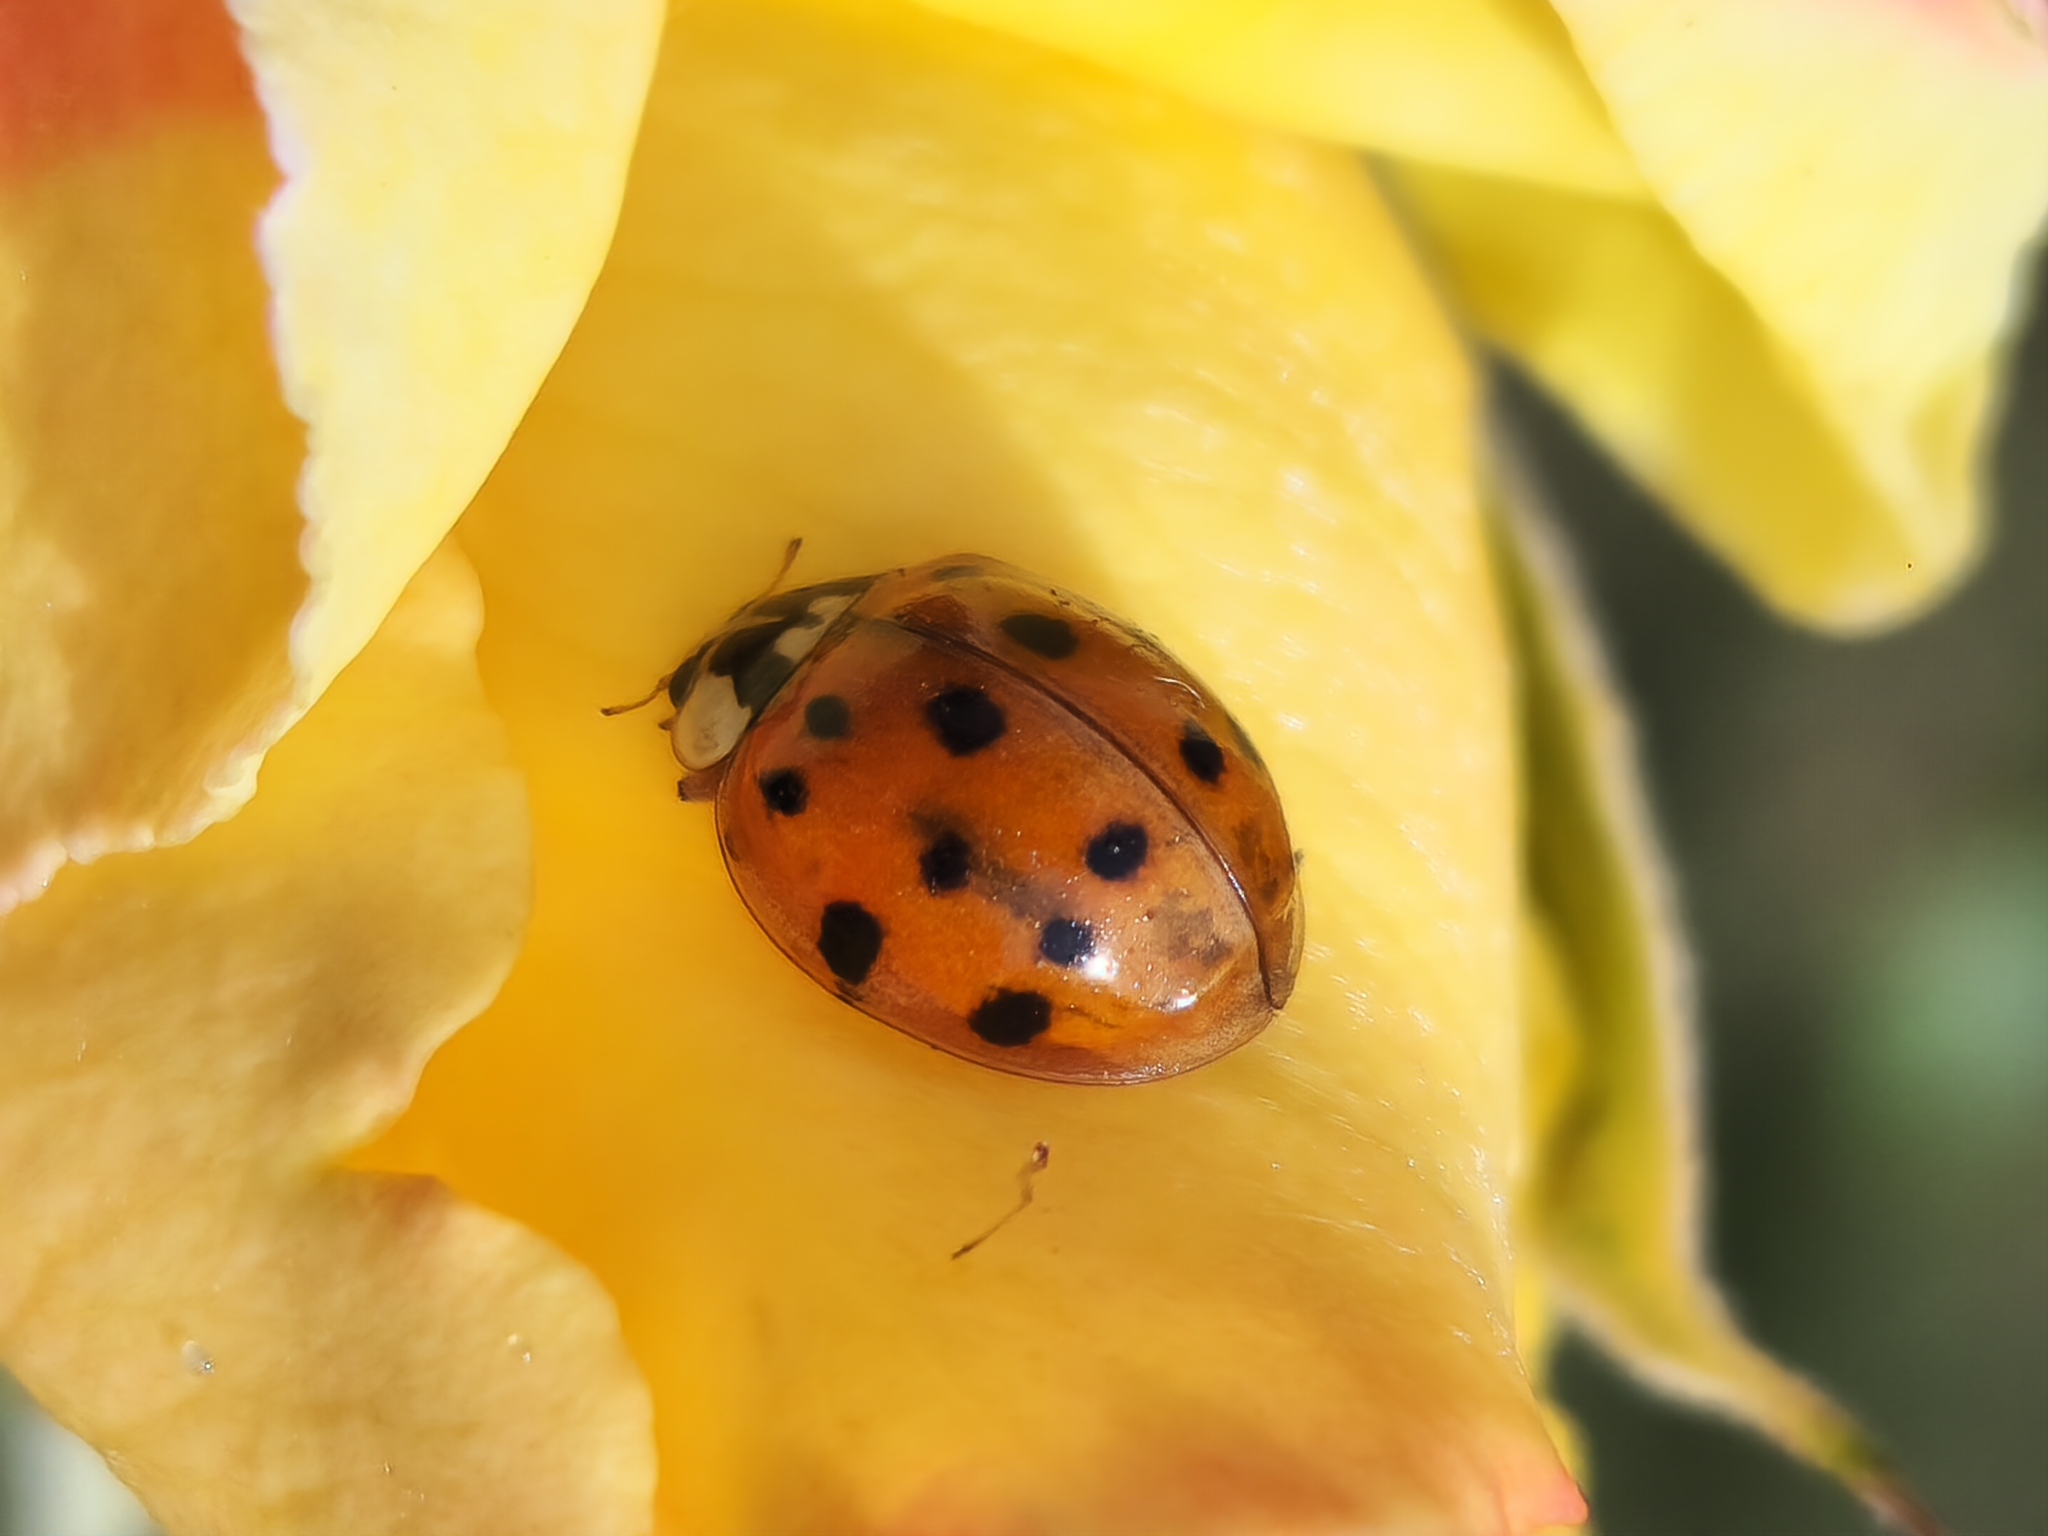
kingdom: Animalia
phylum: Arthropoda
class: Insecta
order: Coleoptera
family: Coccinellidae
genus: Harmonia
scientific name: Harmonia axyridis
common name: Harlequin ladybird
